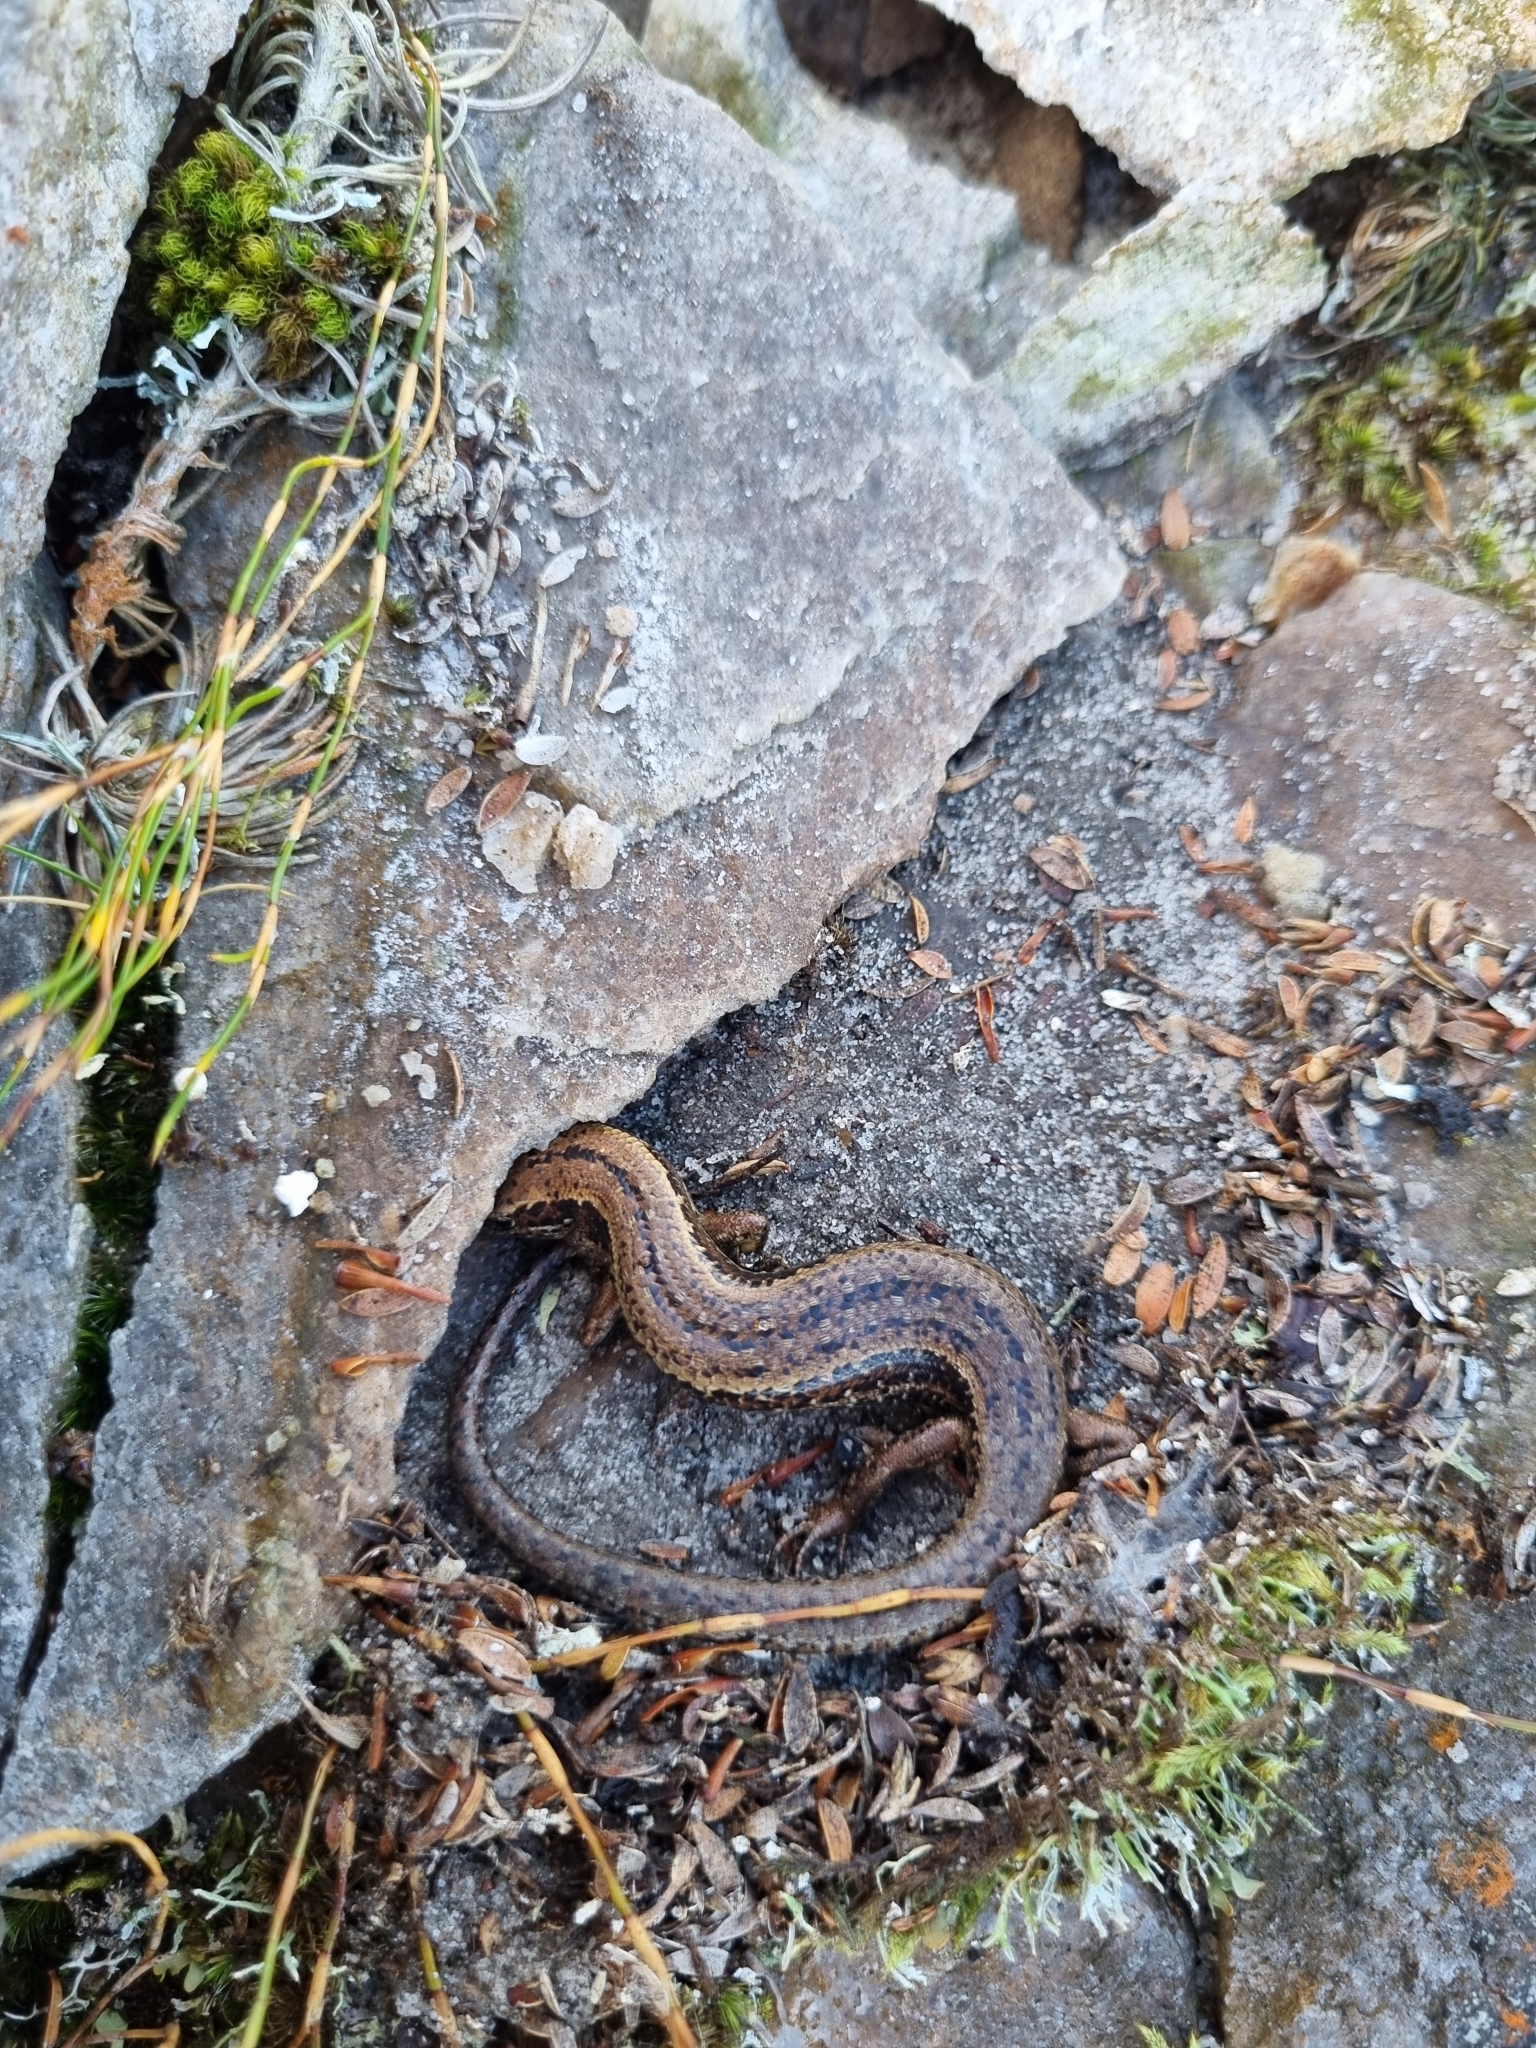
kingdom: Animalia
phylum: Chordata
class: Squamata
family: Scincidae
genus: Oligosoma
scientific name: Oligosoma newmani
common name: Newman’s speckled skink
